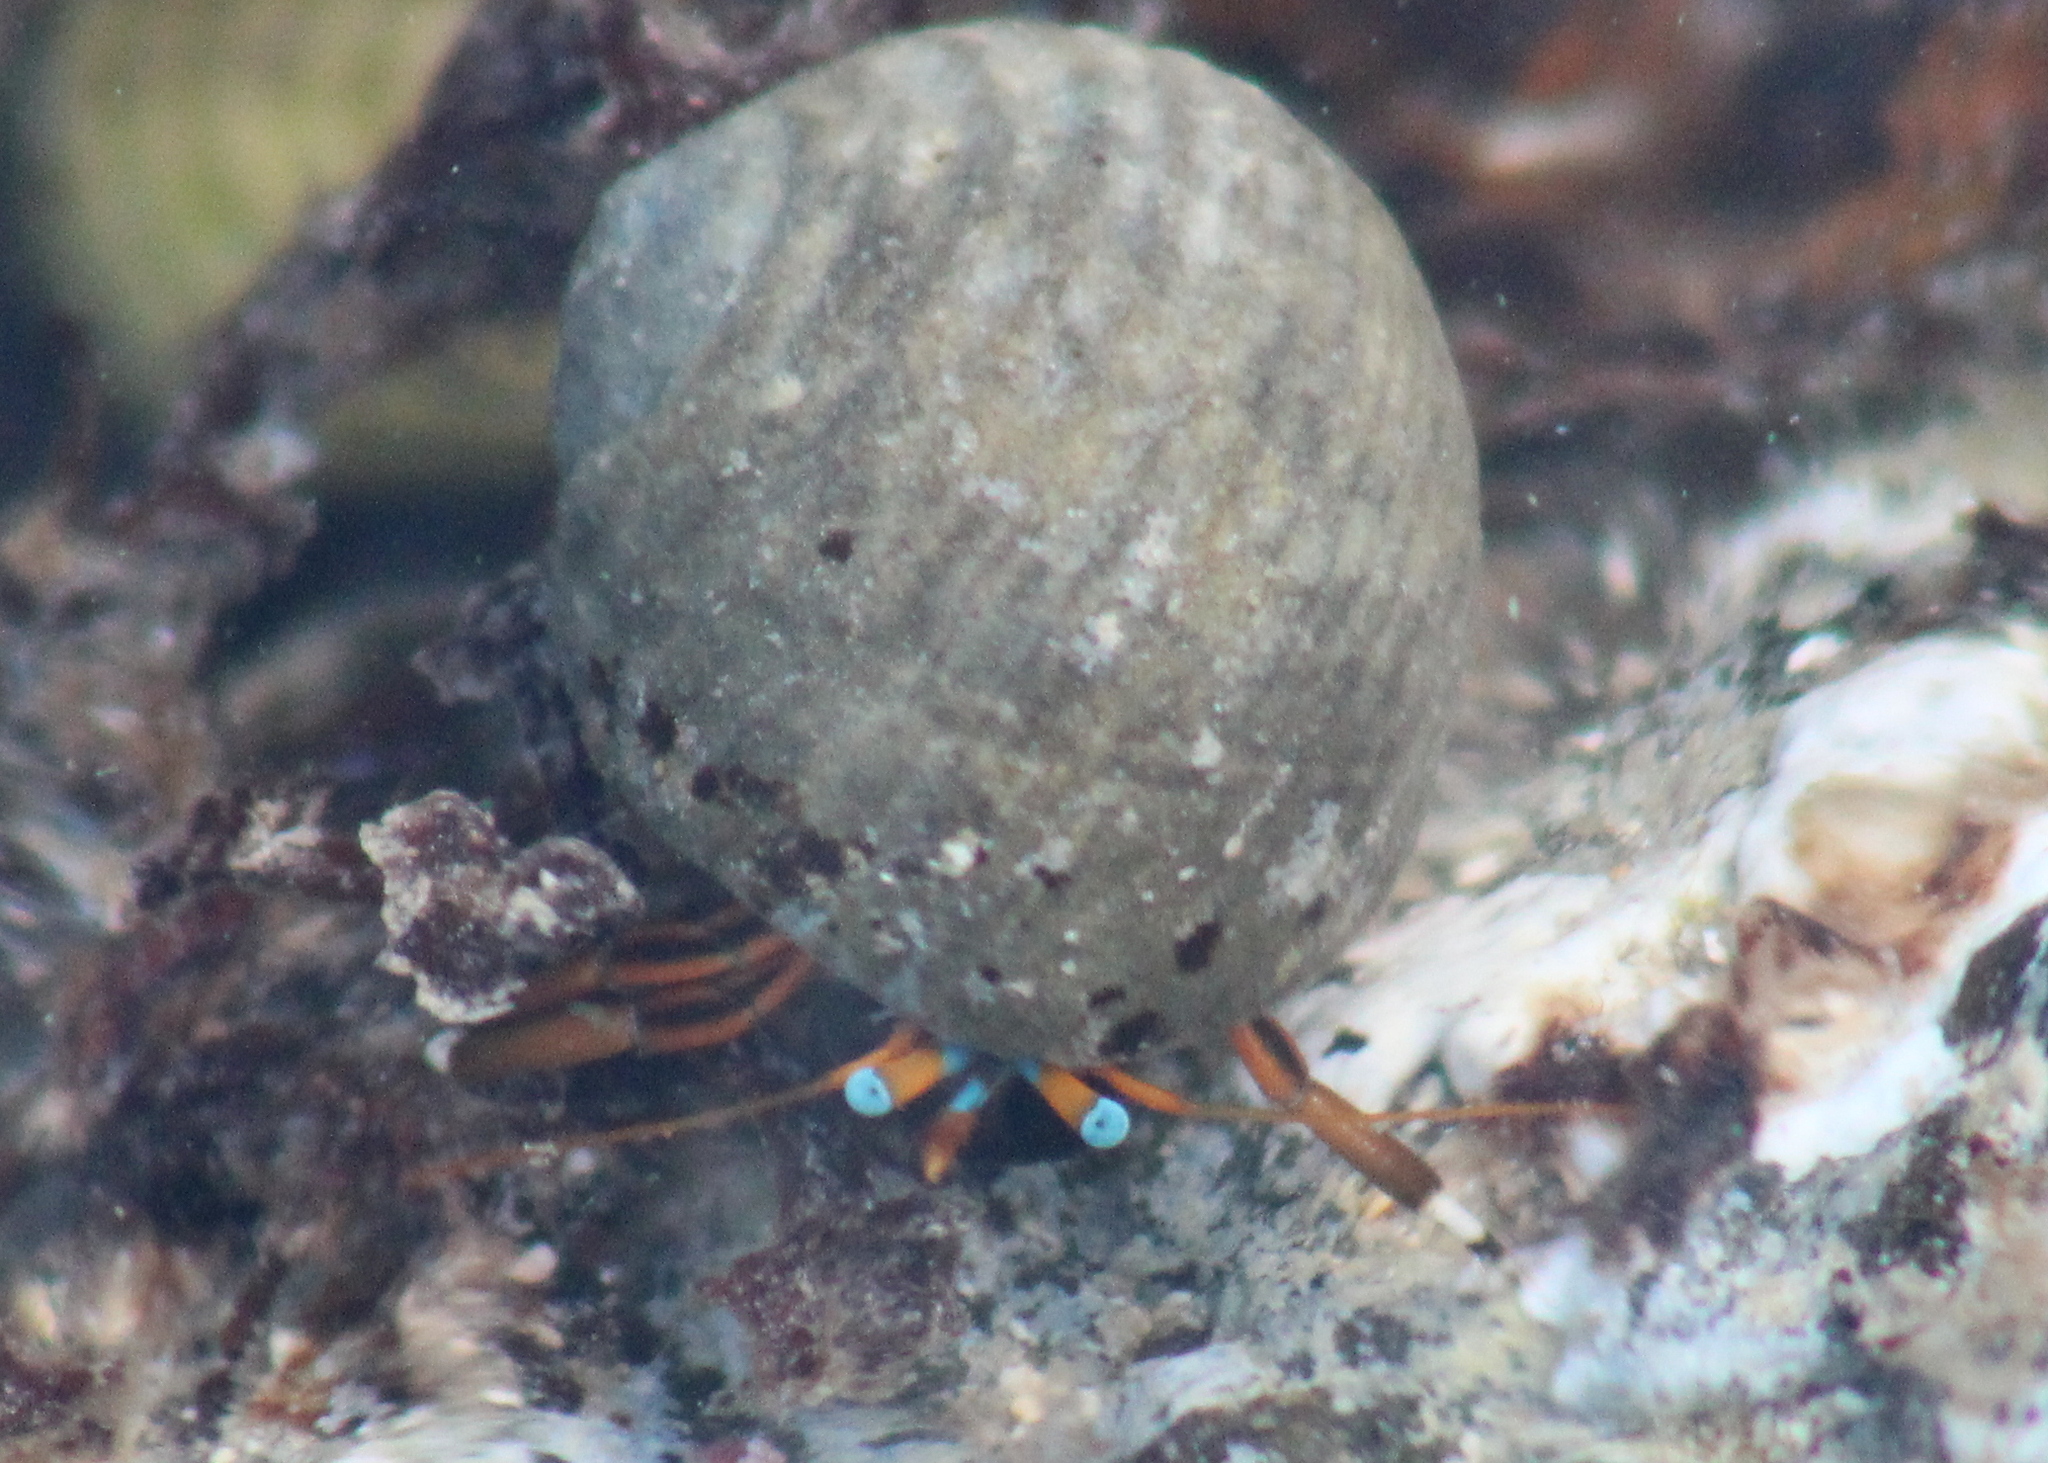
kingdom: Animalia
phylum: Arthropoda
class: Malacostraca
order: Decapoda
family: Diogenidae
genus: Calcinus
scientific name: Calcinus laevimanus
